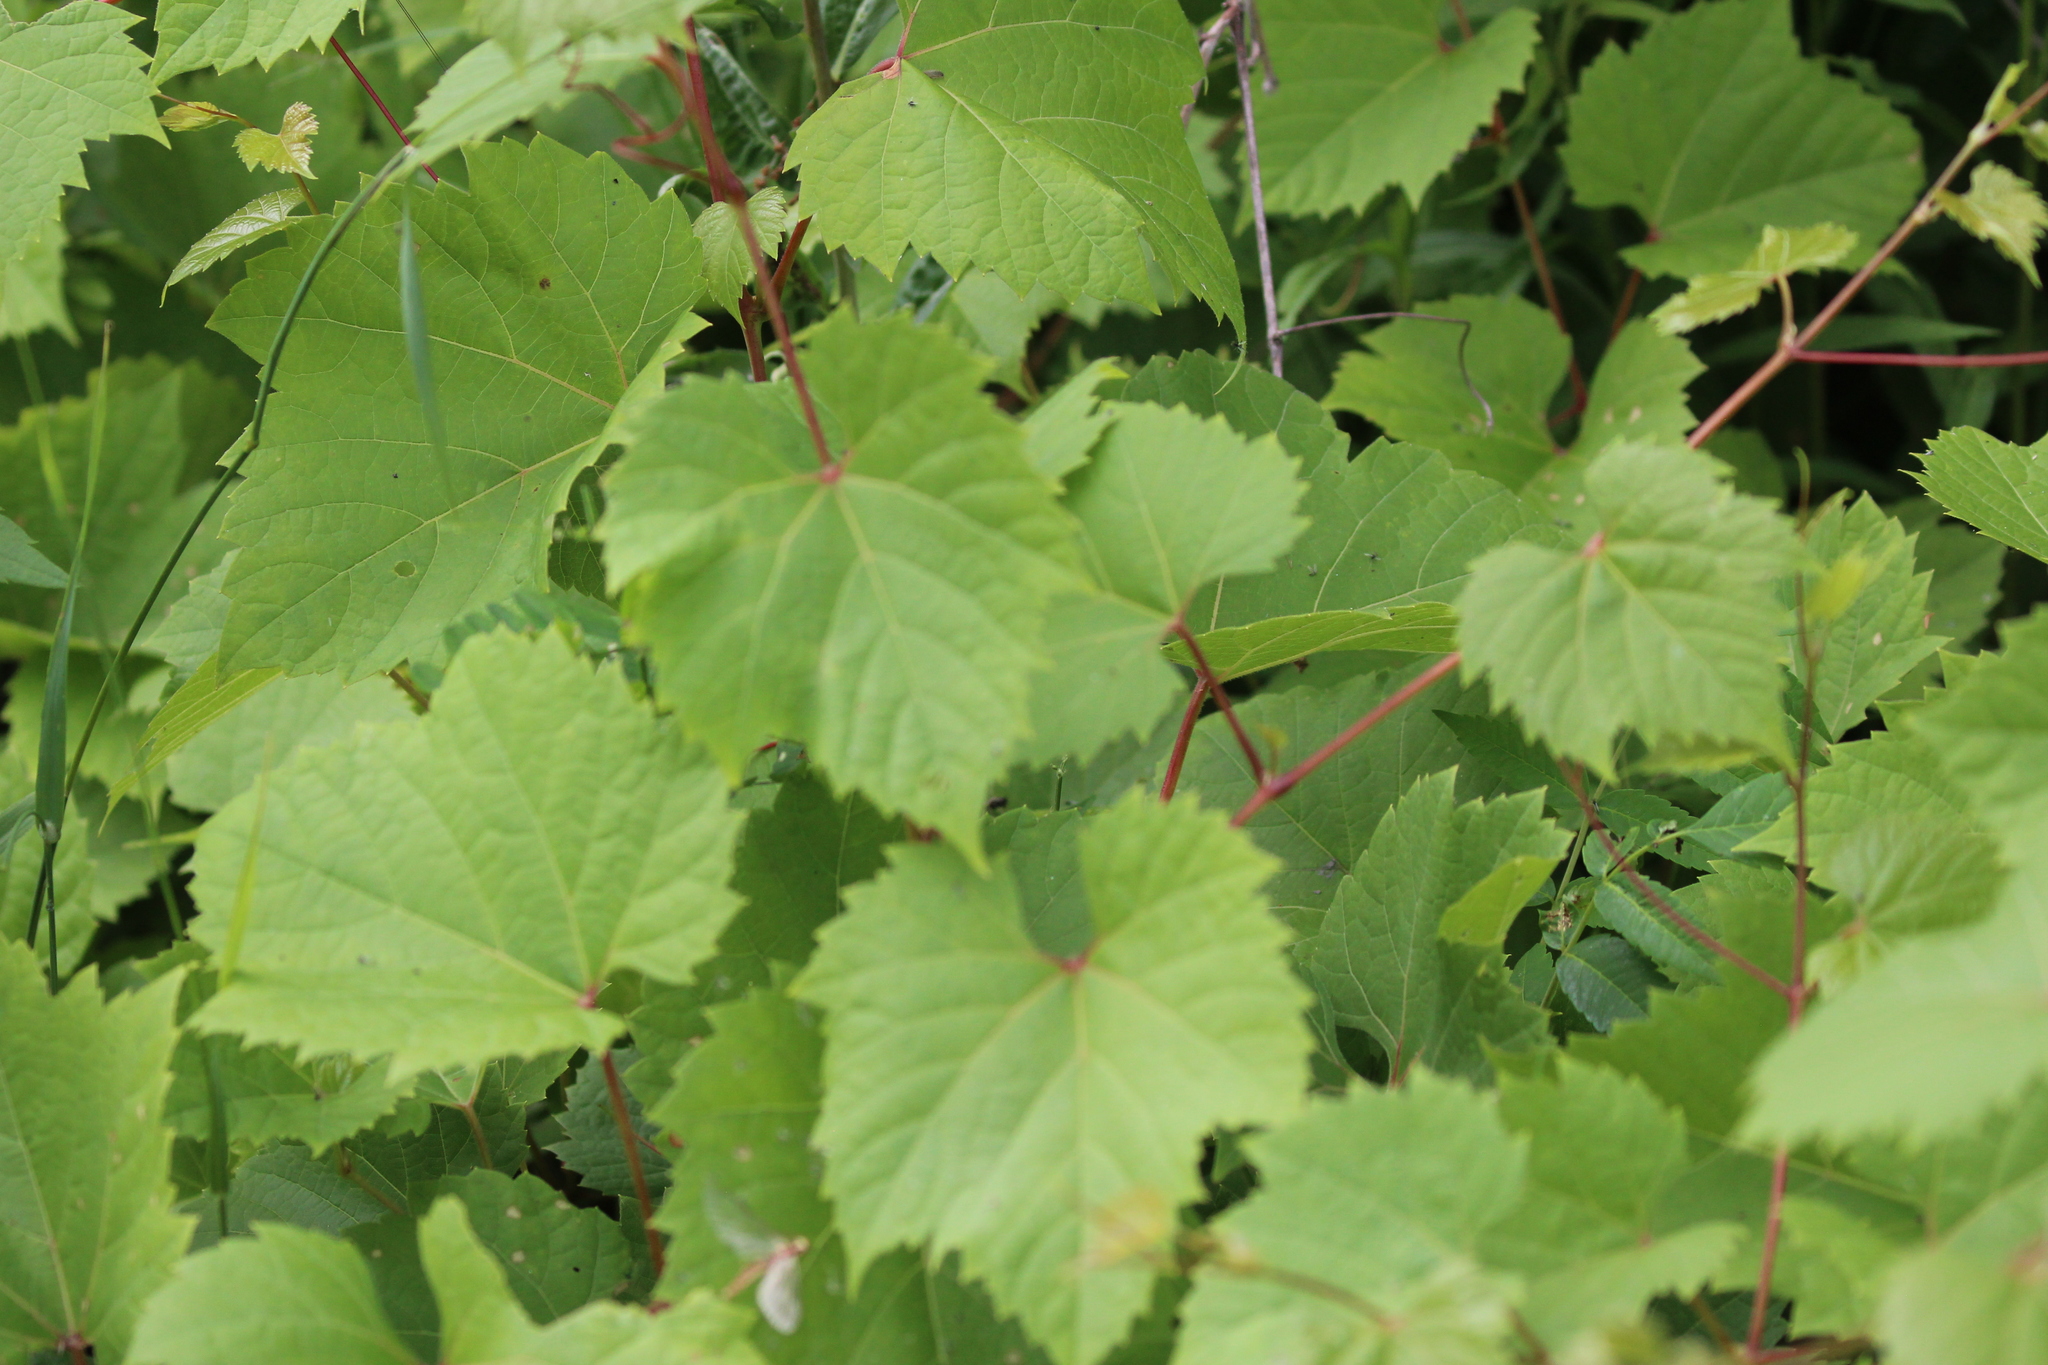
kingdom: Plantae
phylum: Tracheophyta
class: Magnoliopsida
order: Vitales
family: Vitaceae
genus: Vitis
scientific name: Vitis riparia
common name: Frost grape
